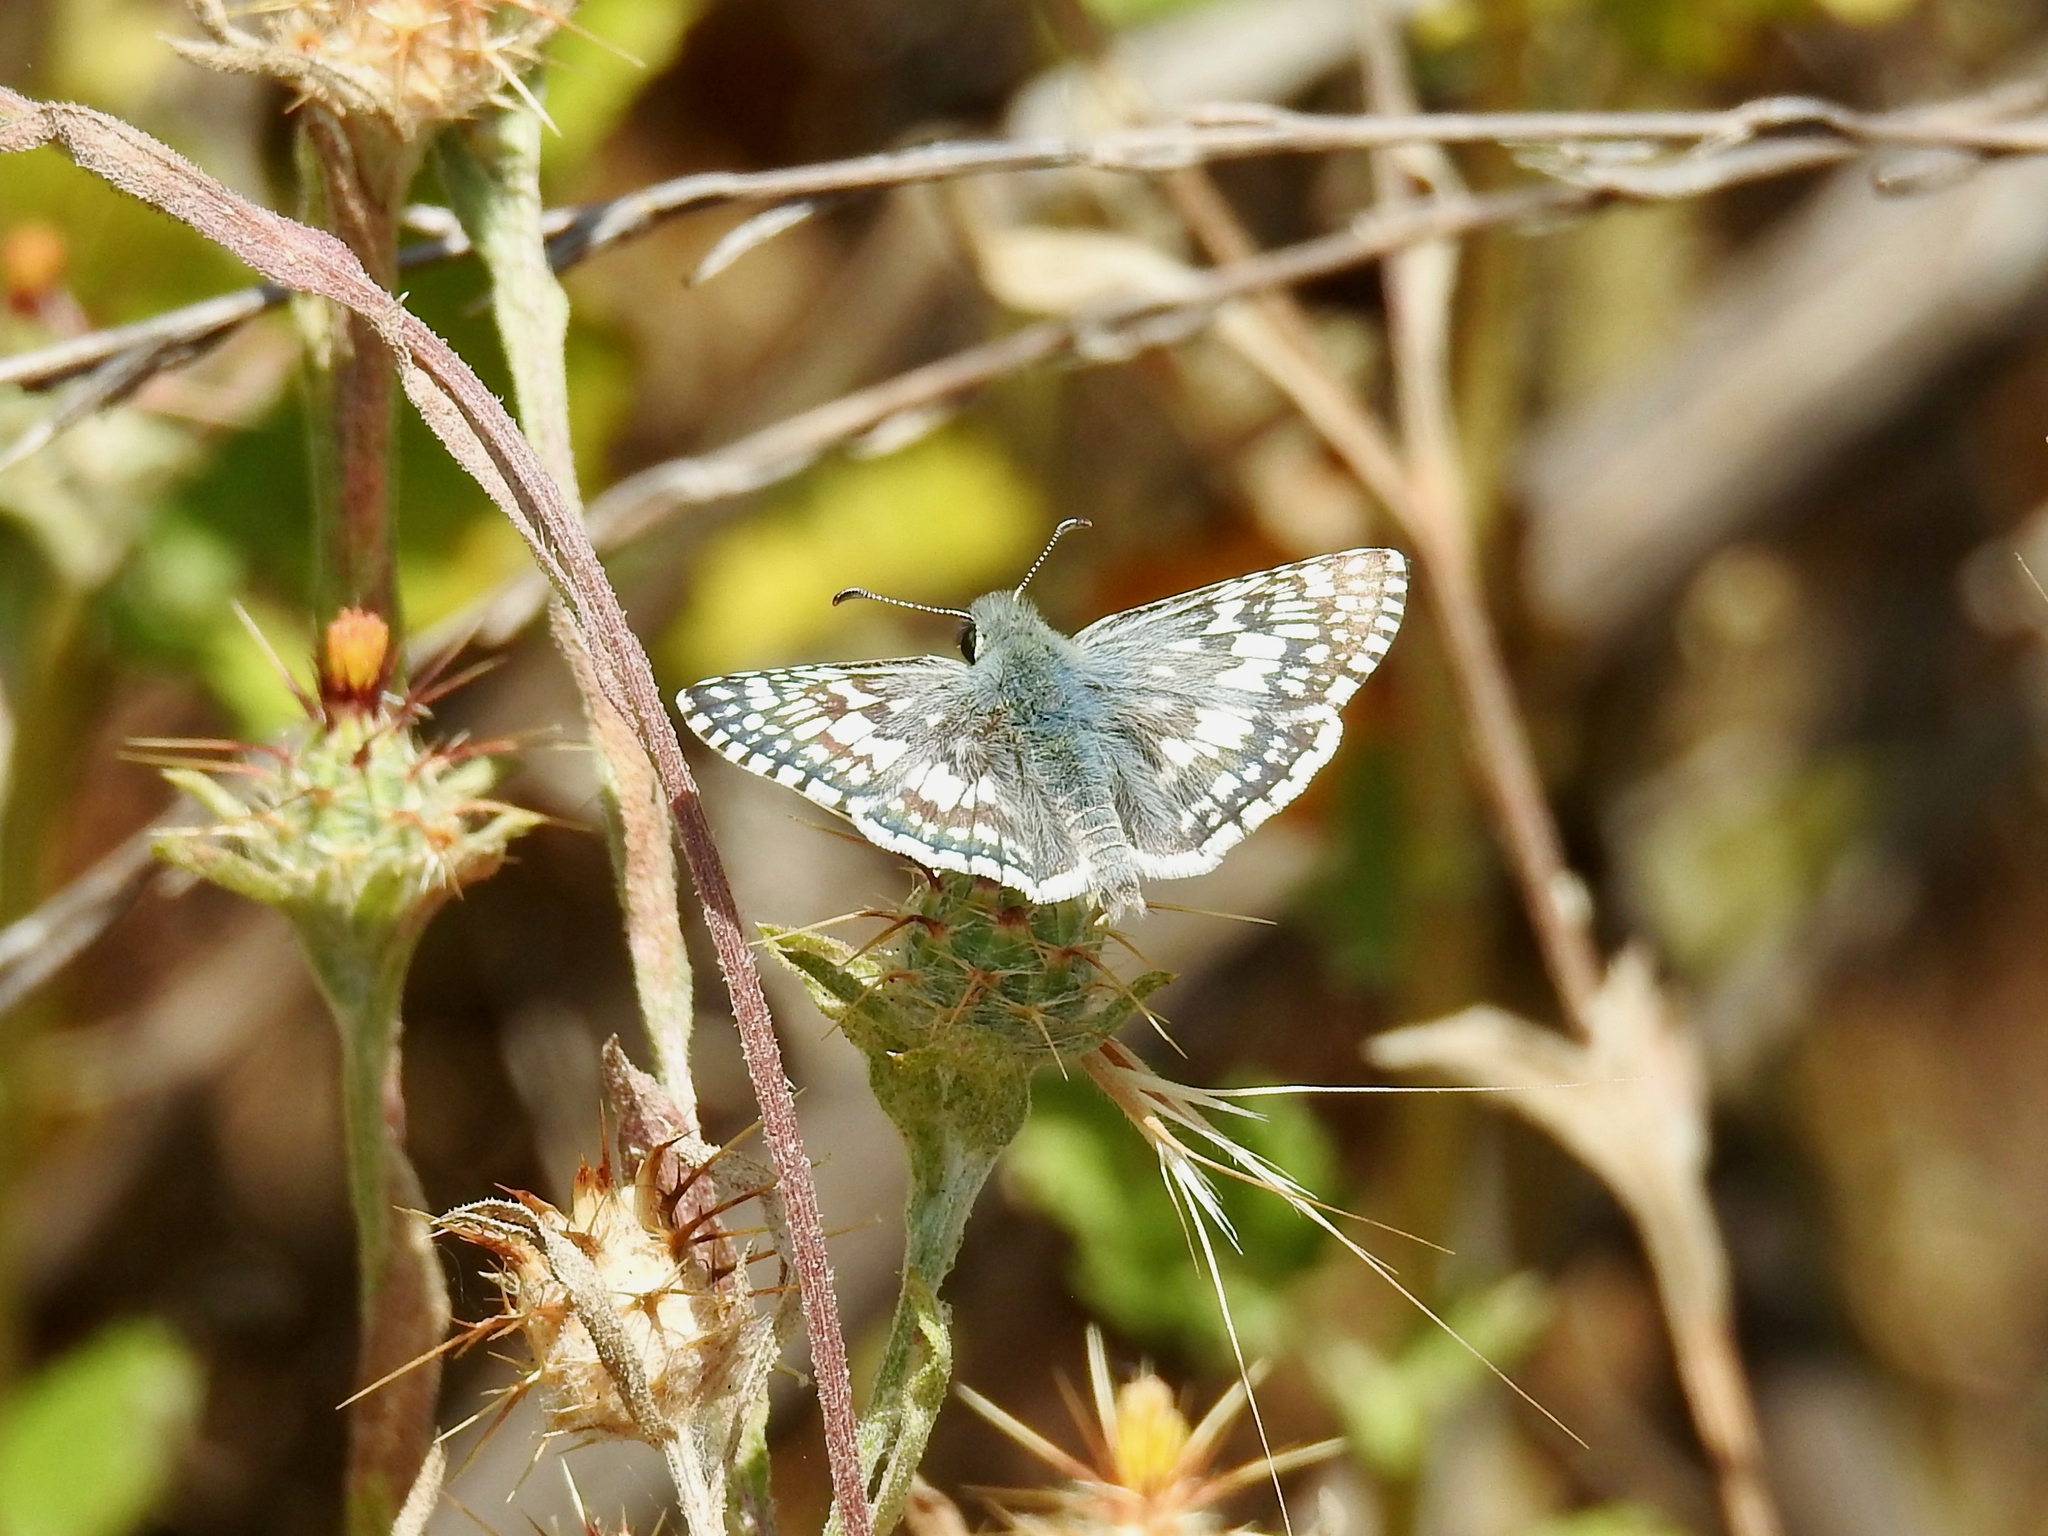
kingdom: Animalia
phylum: Arthropoda
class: Insecta
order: Lepidoptera
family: Hesperiidae
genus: Burnsius
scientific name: Burnsius albezens
